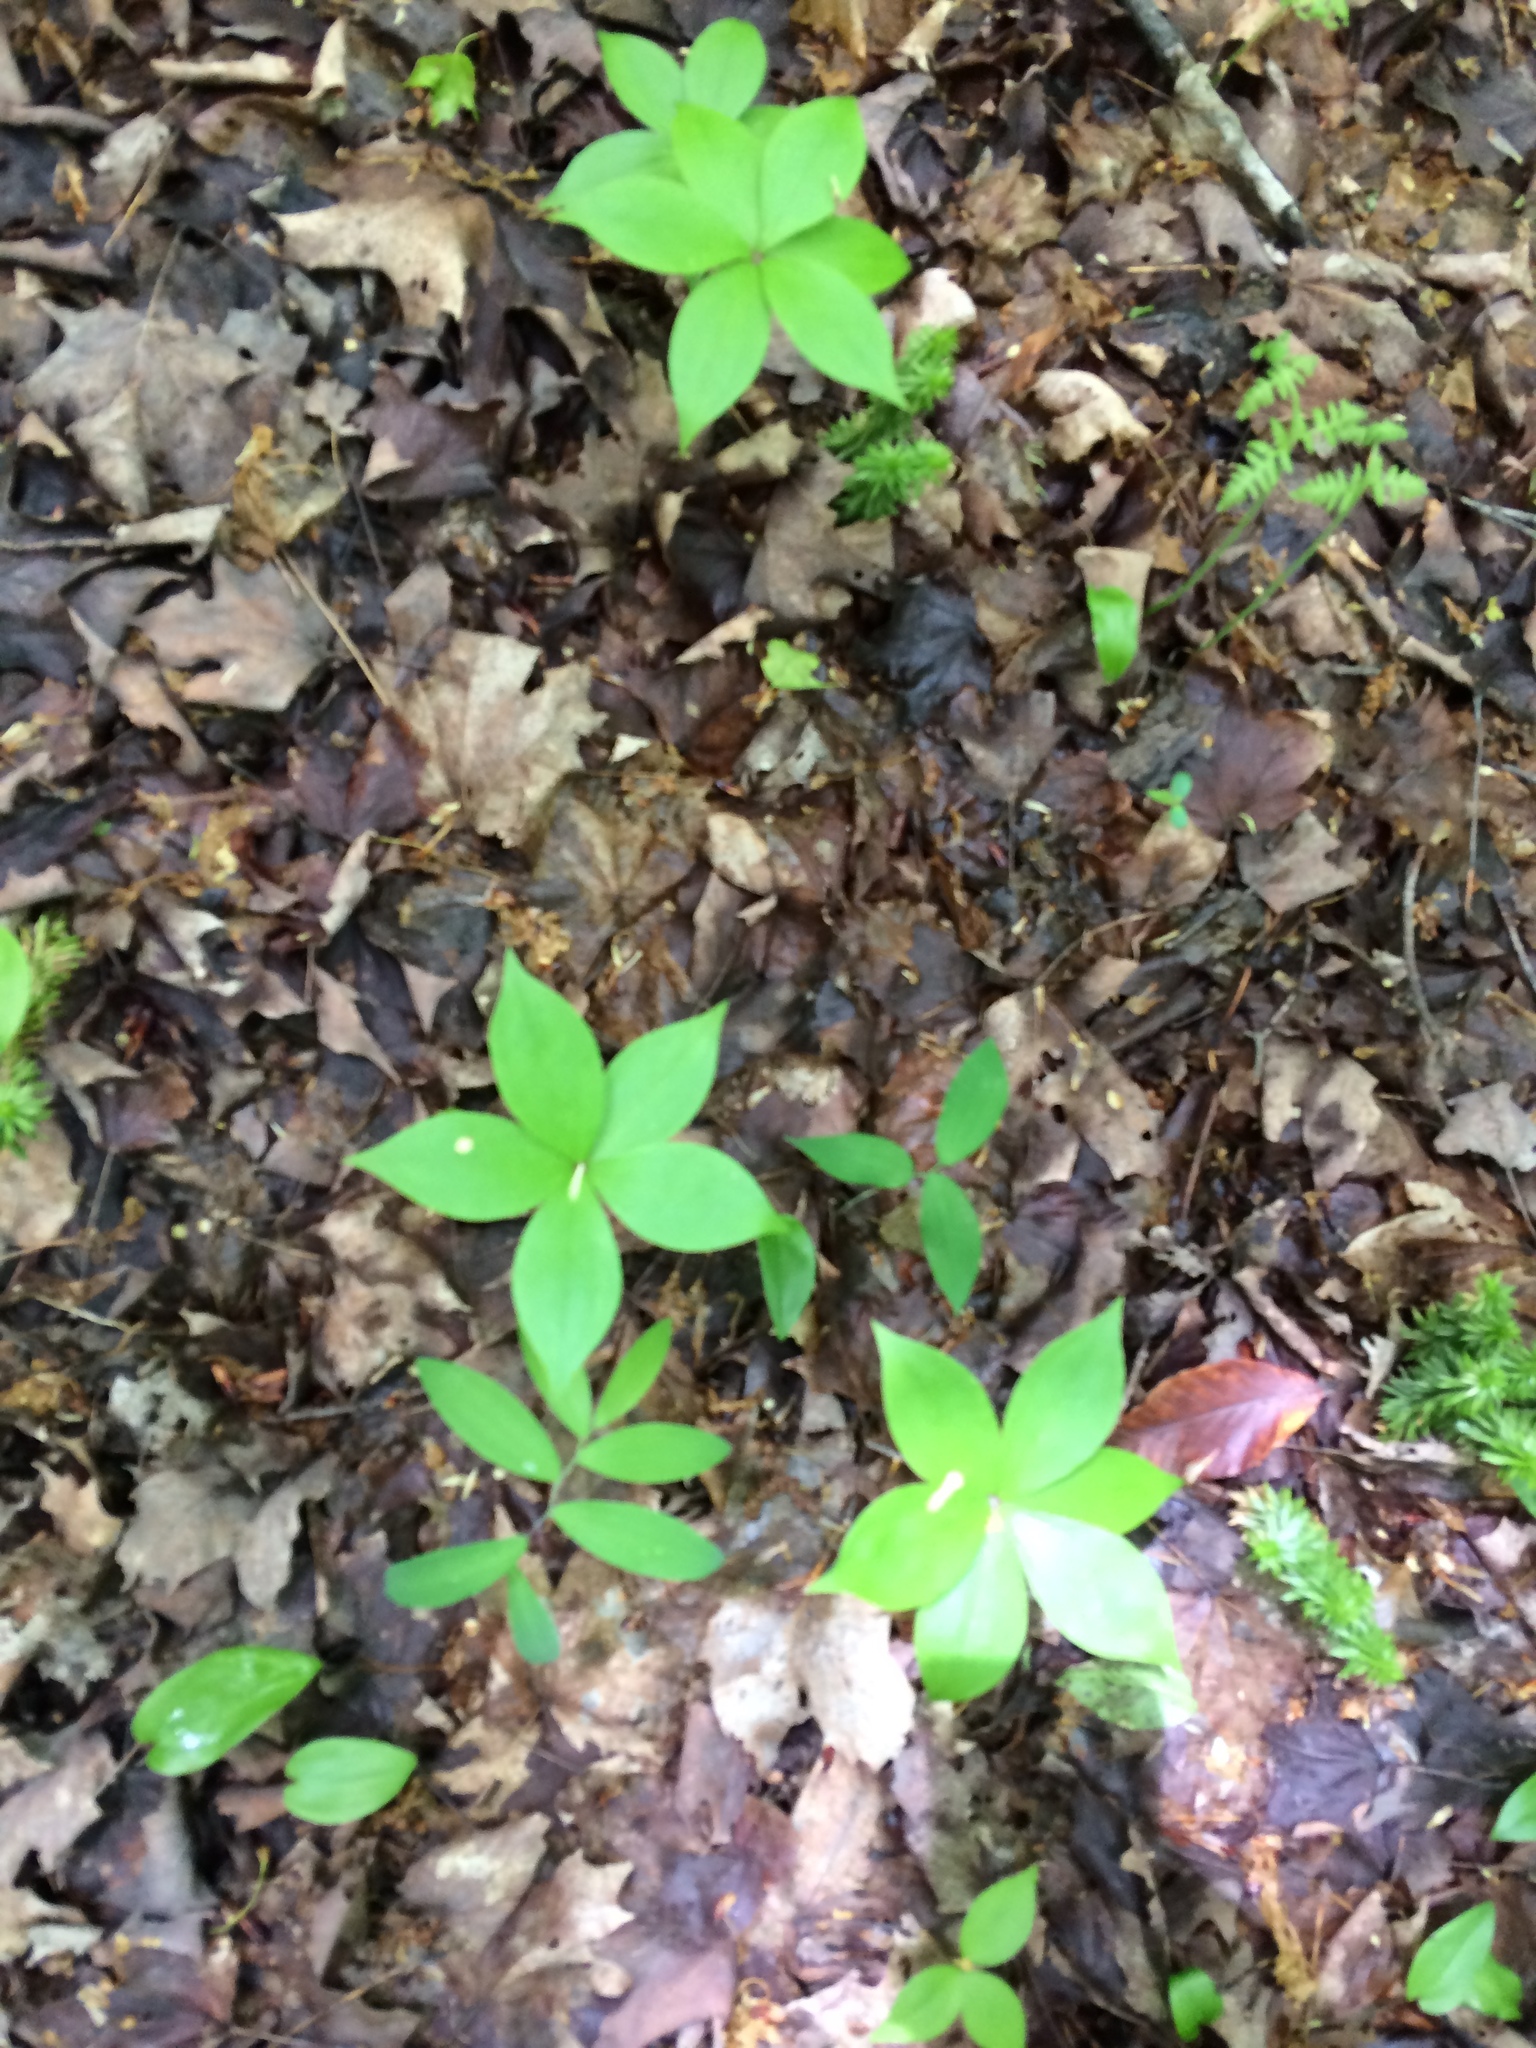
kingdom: Plantae
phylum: Tracheophyta
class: Liliopsida
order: Liliales
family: Liliaceae
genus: Medeola
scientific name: Medeola virginiana
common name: Indian cucumber-root
